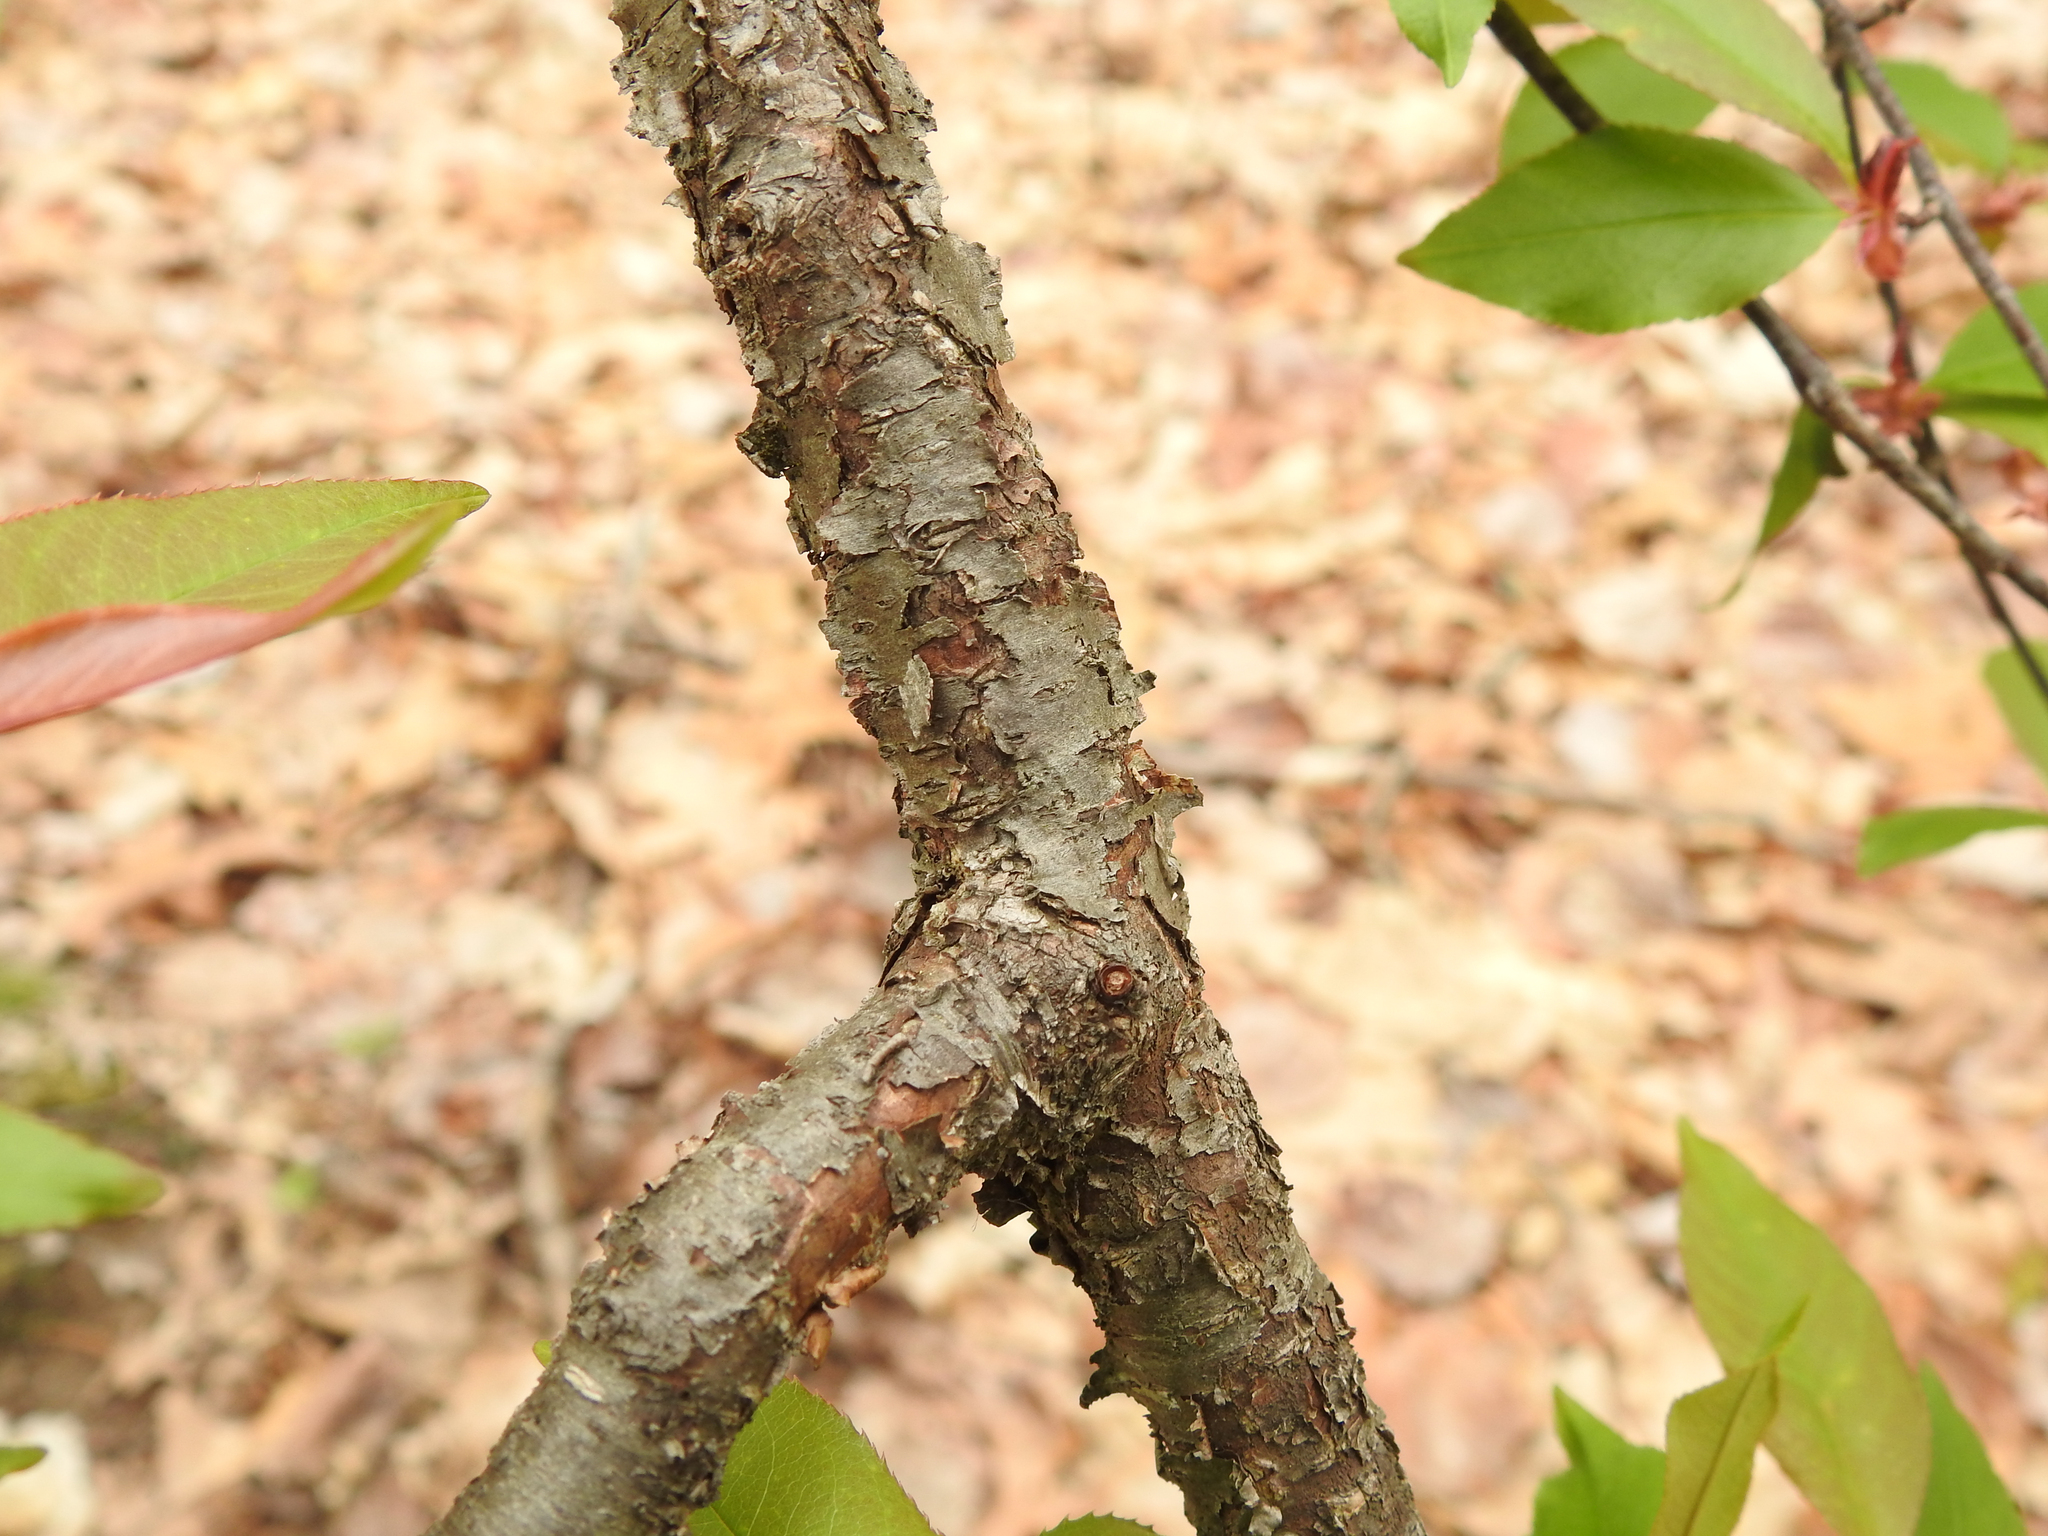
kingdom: Plantae
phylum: Tracheophyta
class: Magnoliopsida
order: Rosales
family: Rosaceae
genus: Prunus
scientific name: Prunus serotina
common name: Black cherry
